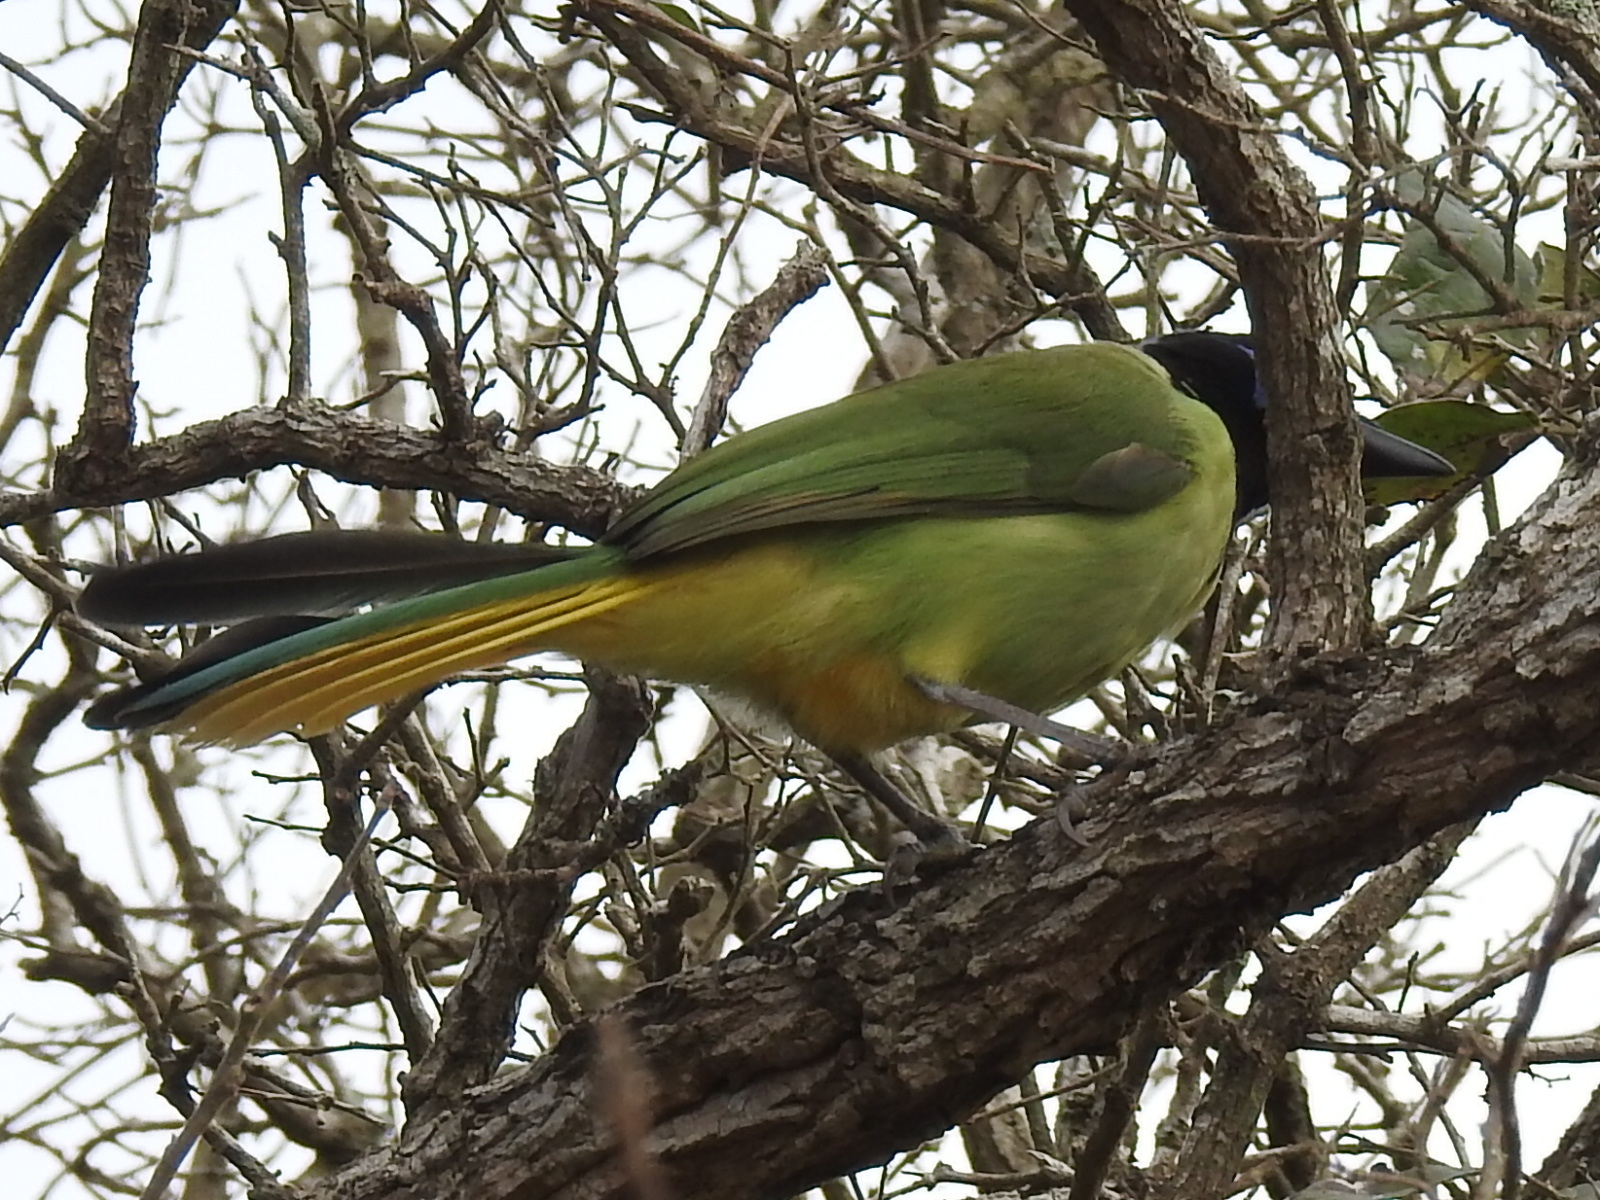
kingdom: Animalia
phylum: Chordata
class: Aves
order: Passeriformes
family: Corvidae
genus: Cyanocorax
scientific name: Cyanocorax yncas
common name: Green jay
